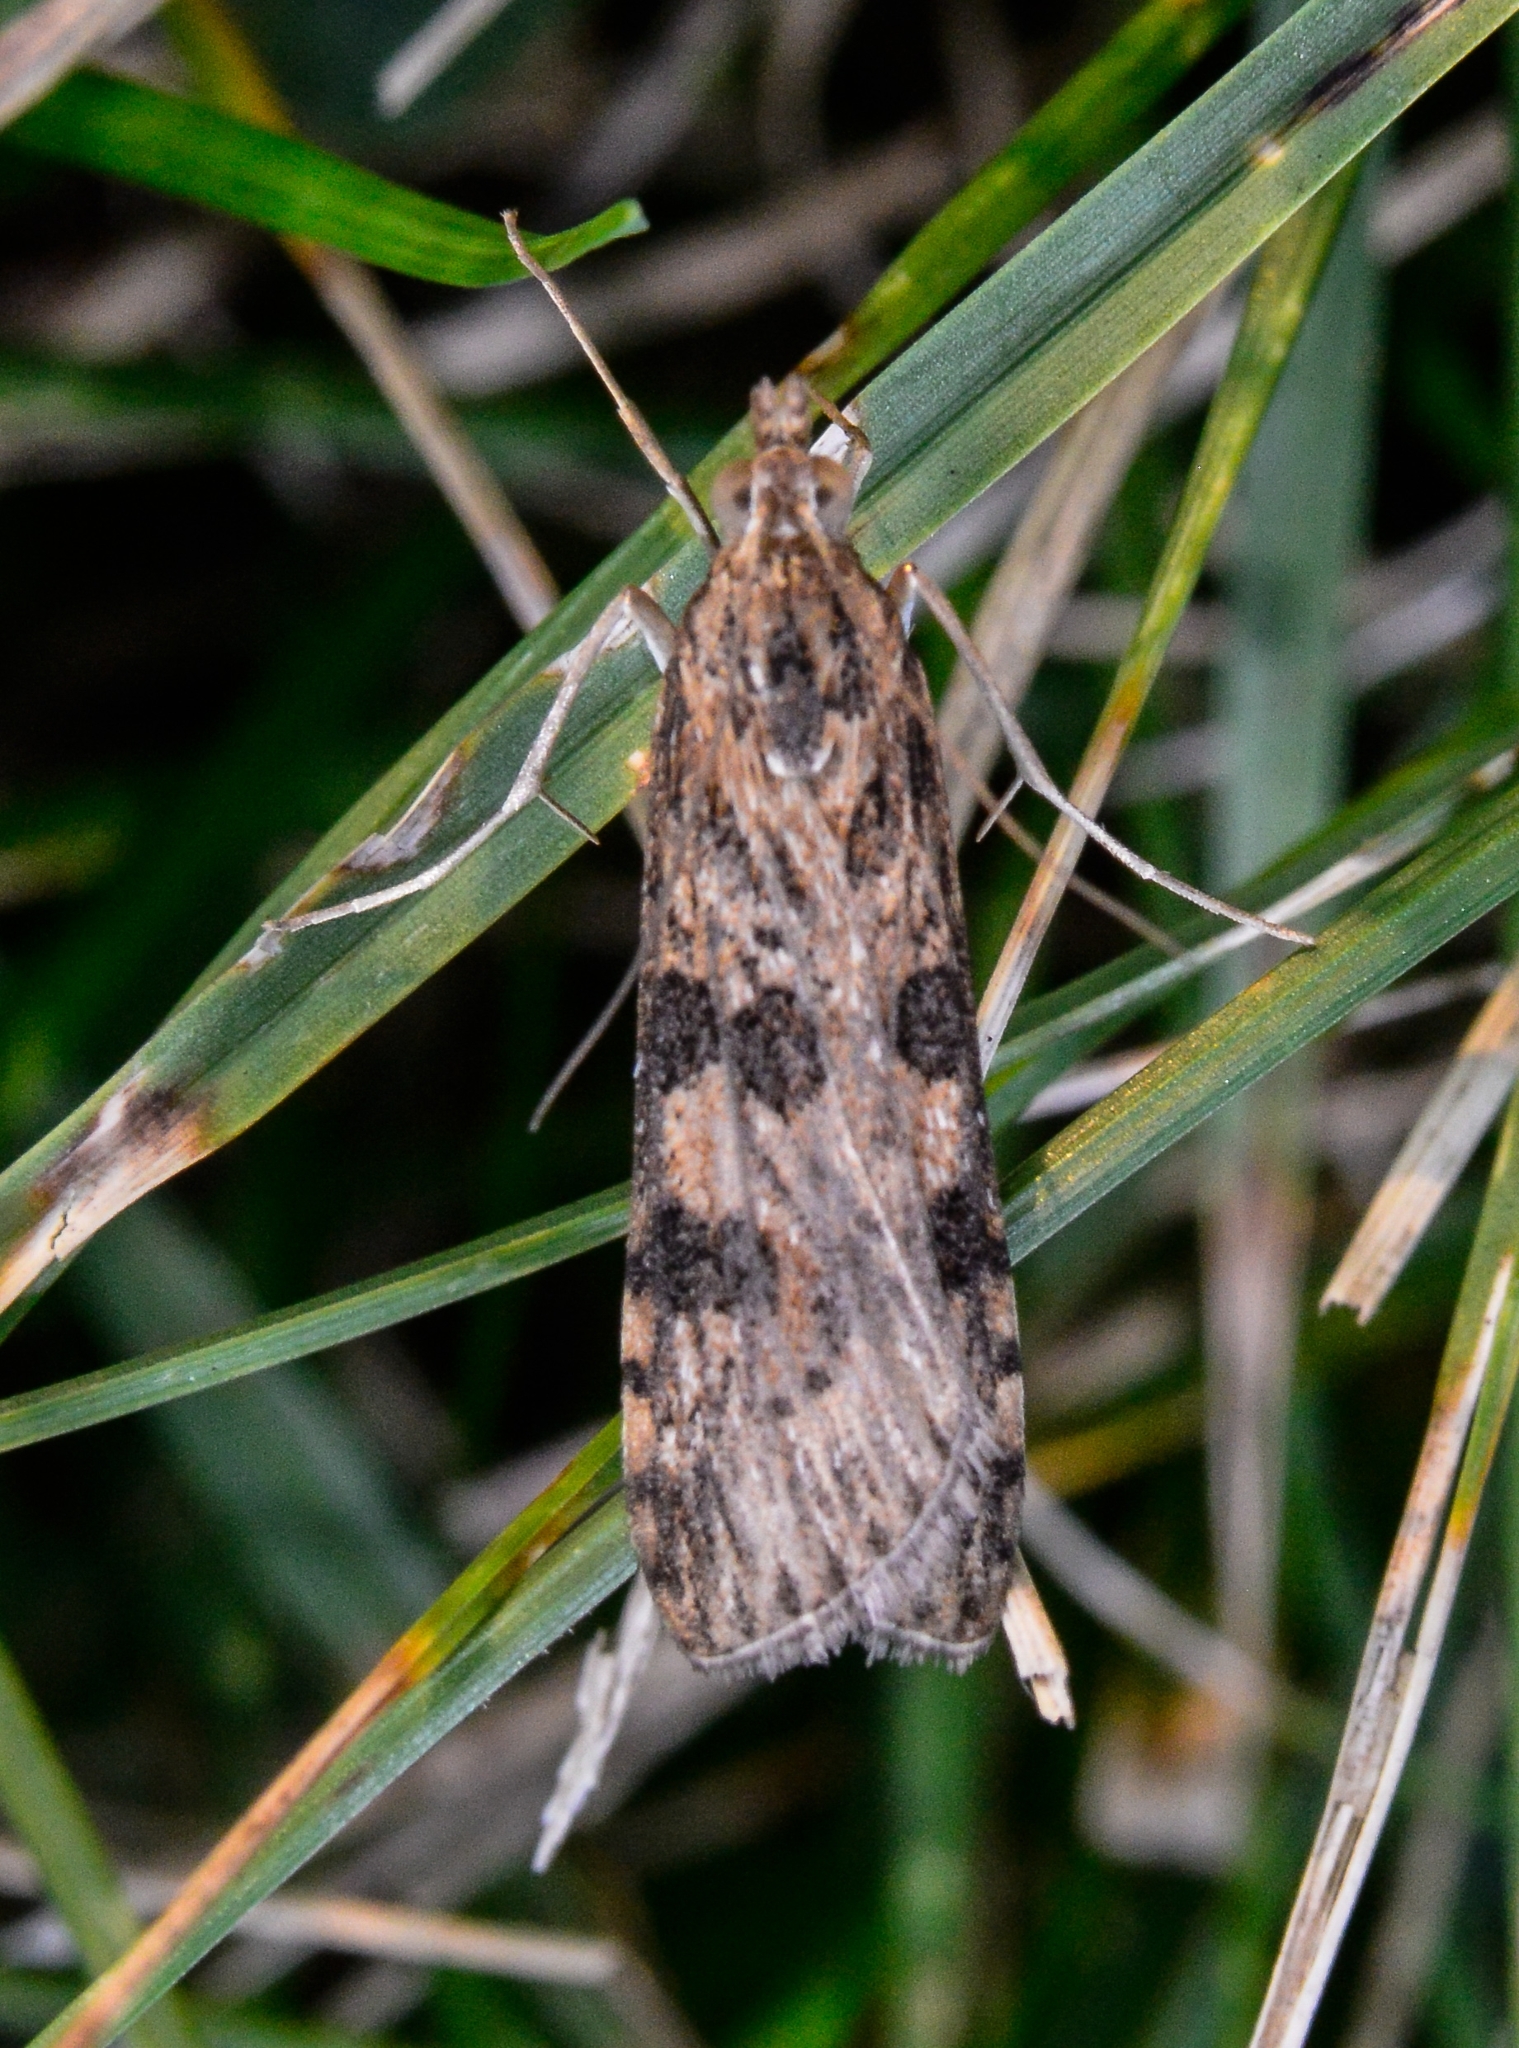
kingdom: Animalia
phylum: Arthropoda
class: Insecta
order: Lepidoptera
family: Crambidae
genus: Nomophila
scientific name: Nomophila nearctica
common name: American rush veneer
